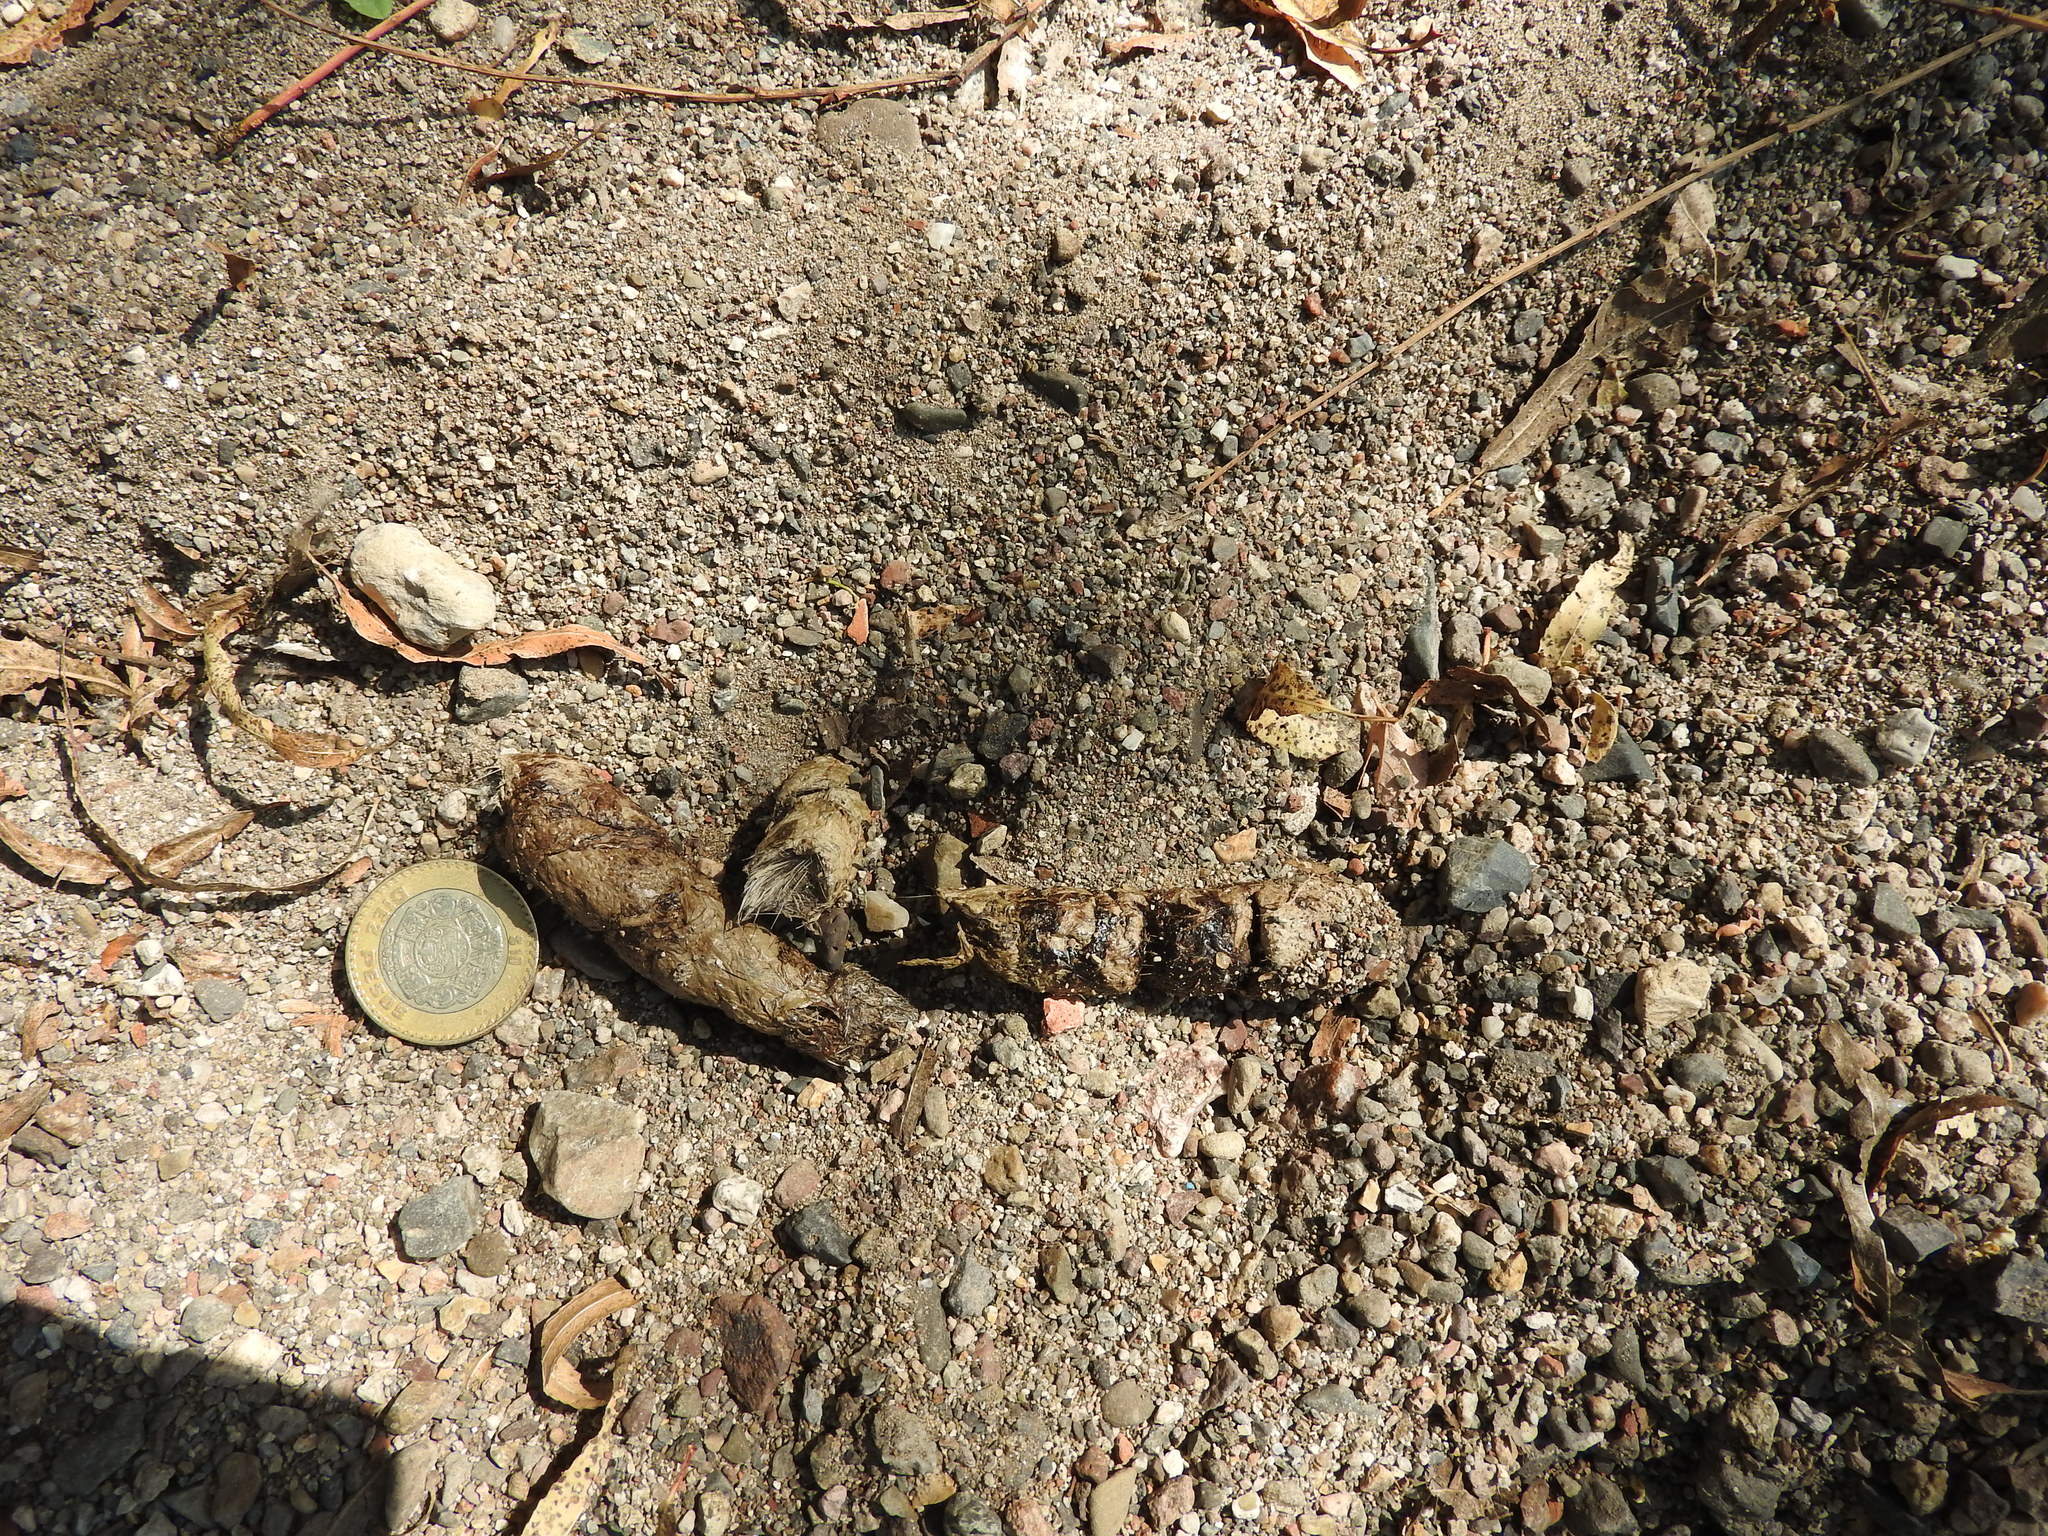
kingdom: Animalia
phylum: Chordata
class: Mammalia
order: Carnivora
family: Canidae
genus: Canis
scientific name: Canis latrans
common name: Coyote
